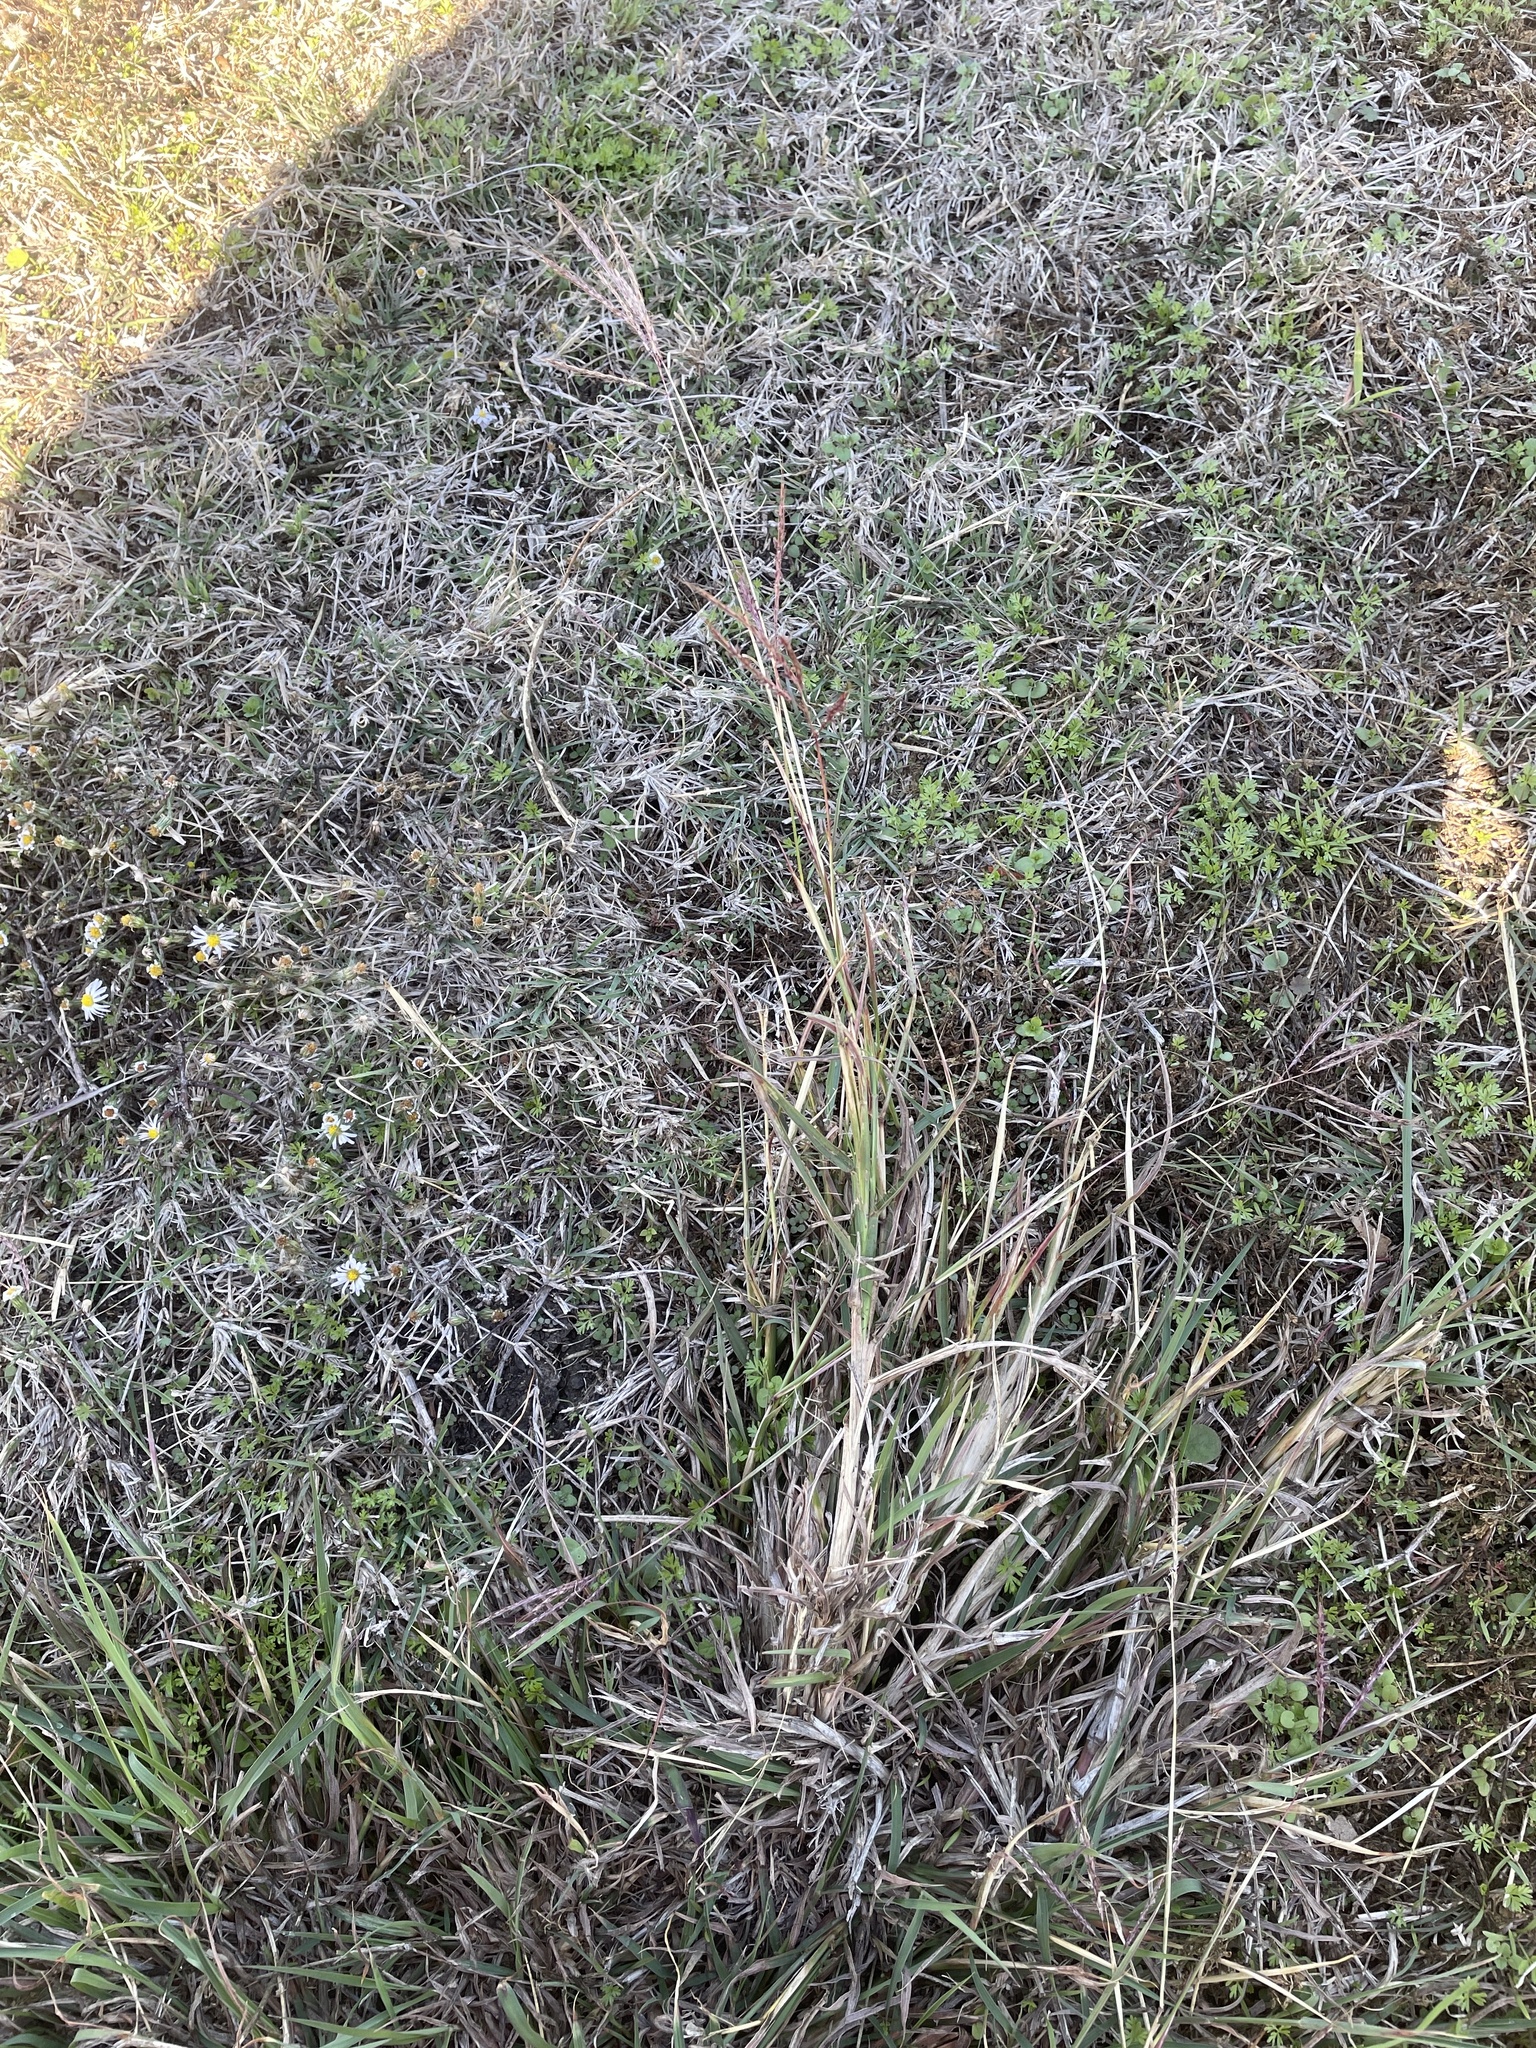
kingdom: Plantae
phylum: Tracheophyta
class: Liliopsida
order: Poales
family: Poaceae
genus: Bothriochloa
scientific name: Bothriochloa ischaemum
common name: Yellow bluestem
